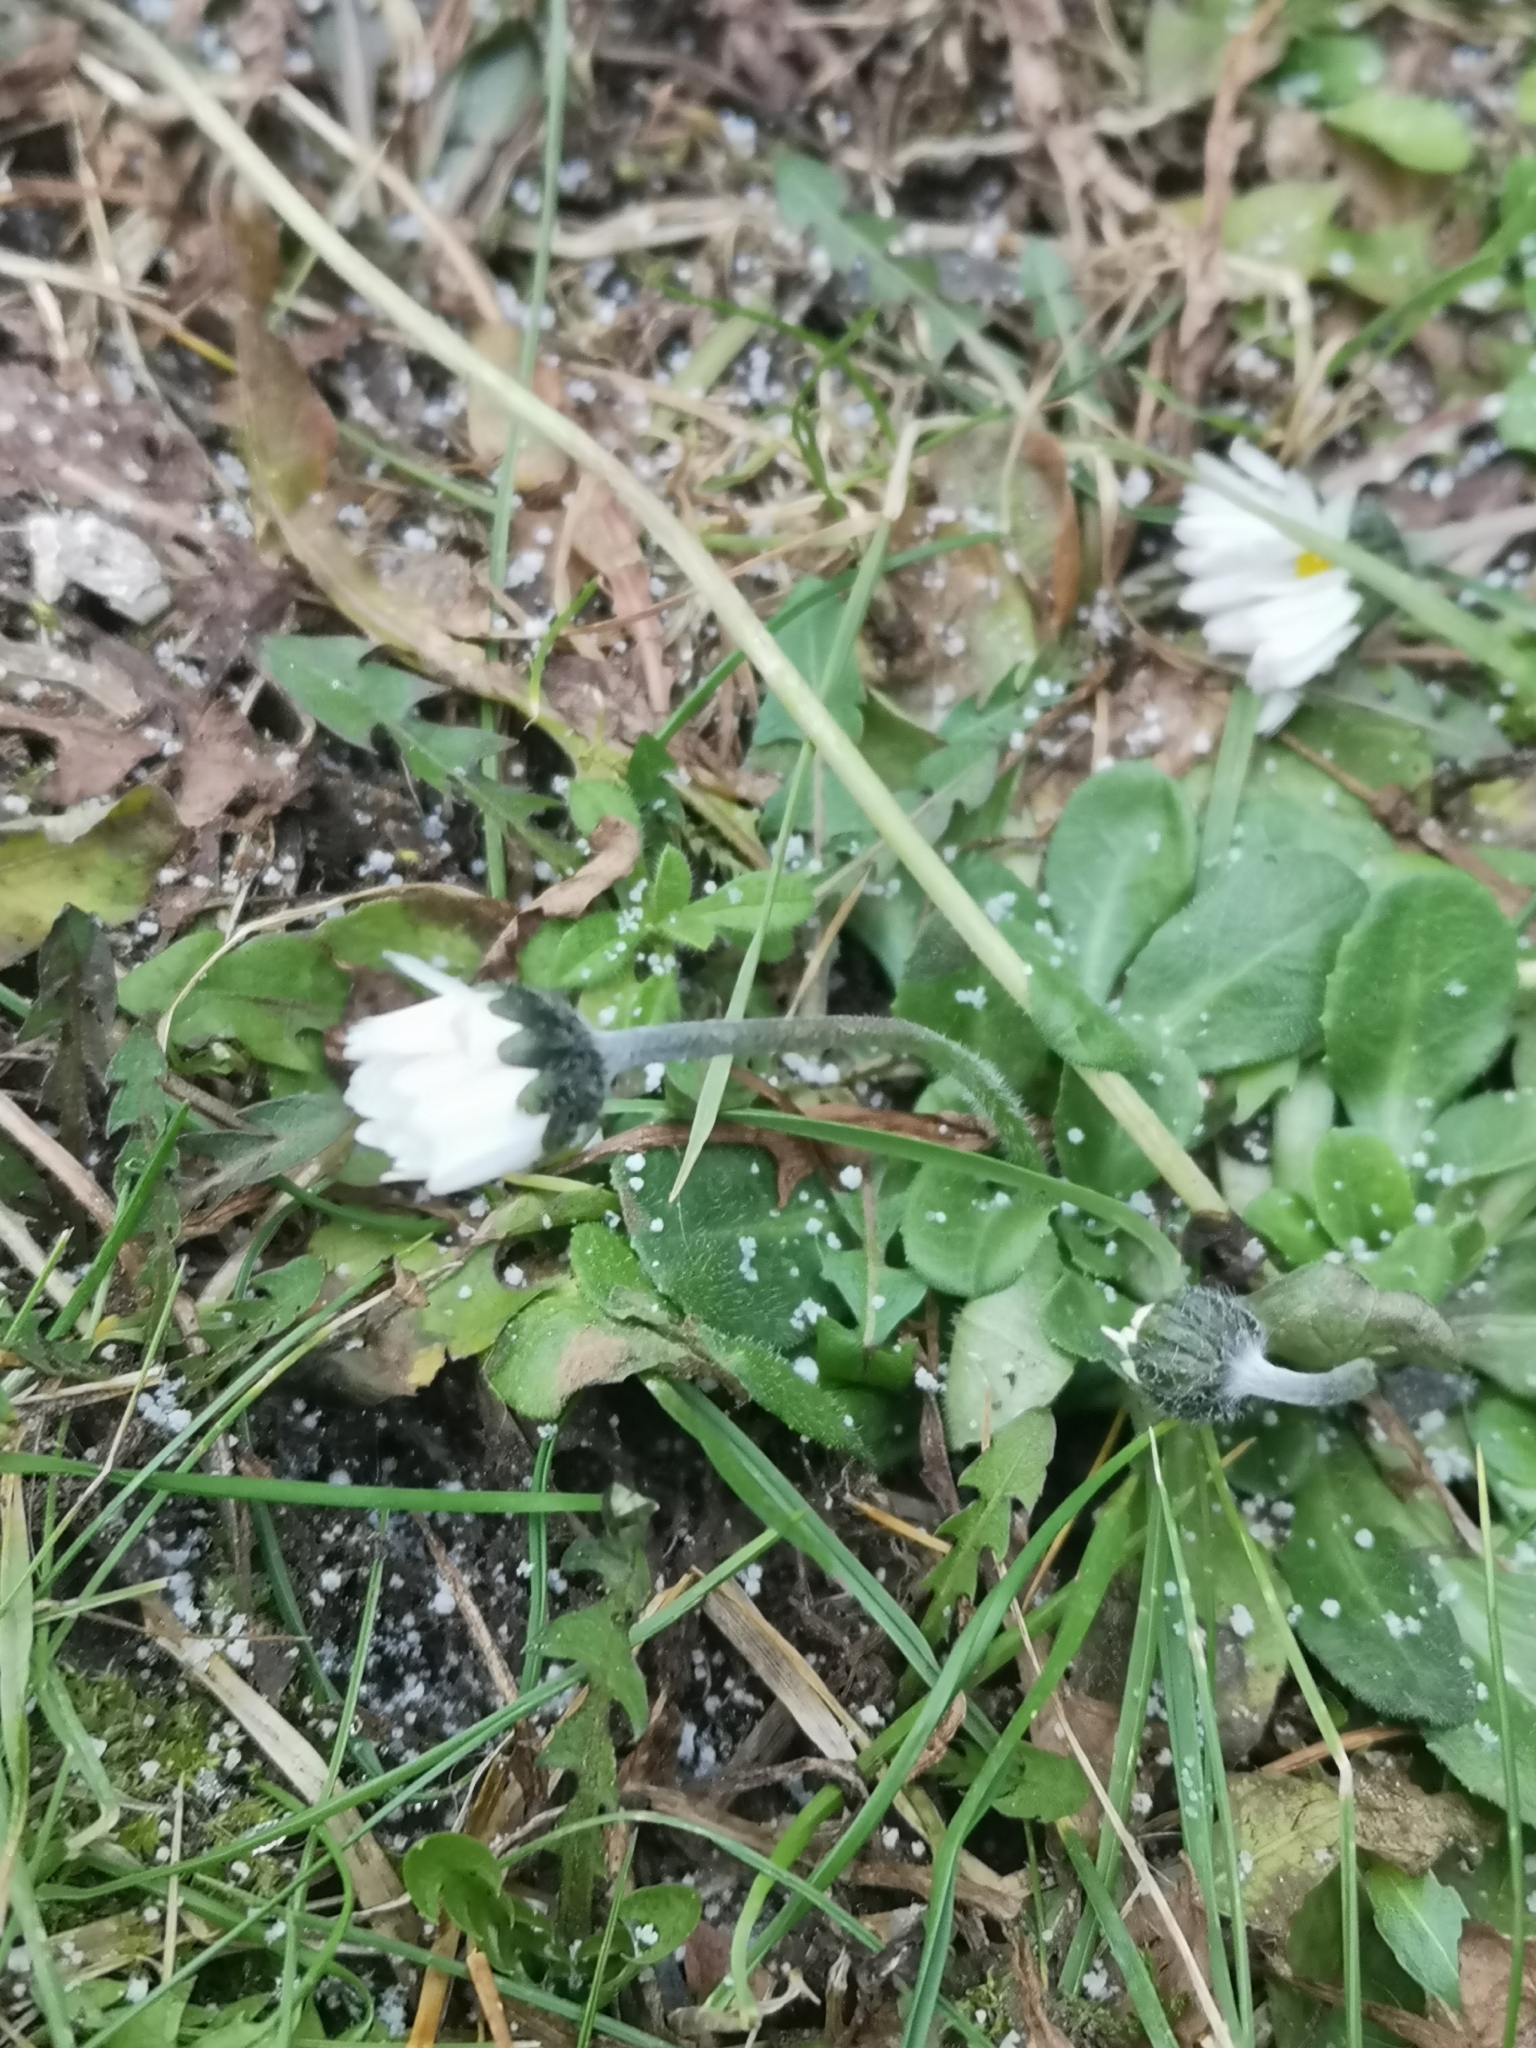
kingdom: Plantae
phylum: Tracheophyta
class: Magnoliopsida
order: Asterales
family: Asteraceae
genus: Bellis
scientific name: Bellis perennis
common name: Lawndaisy
